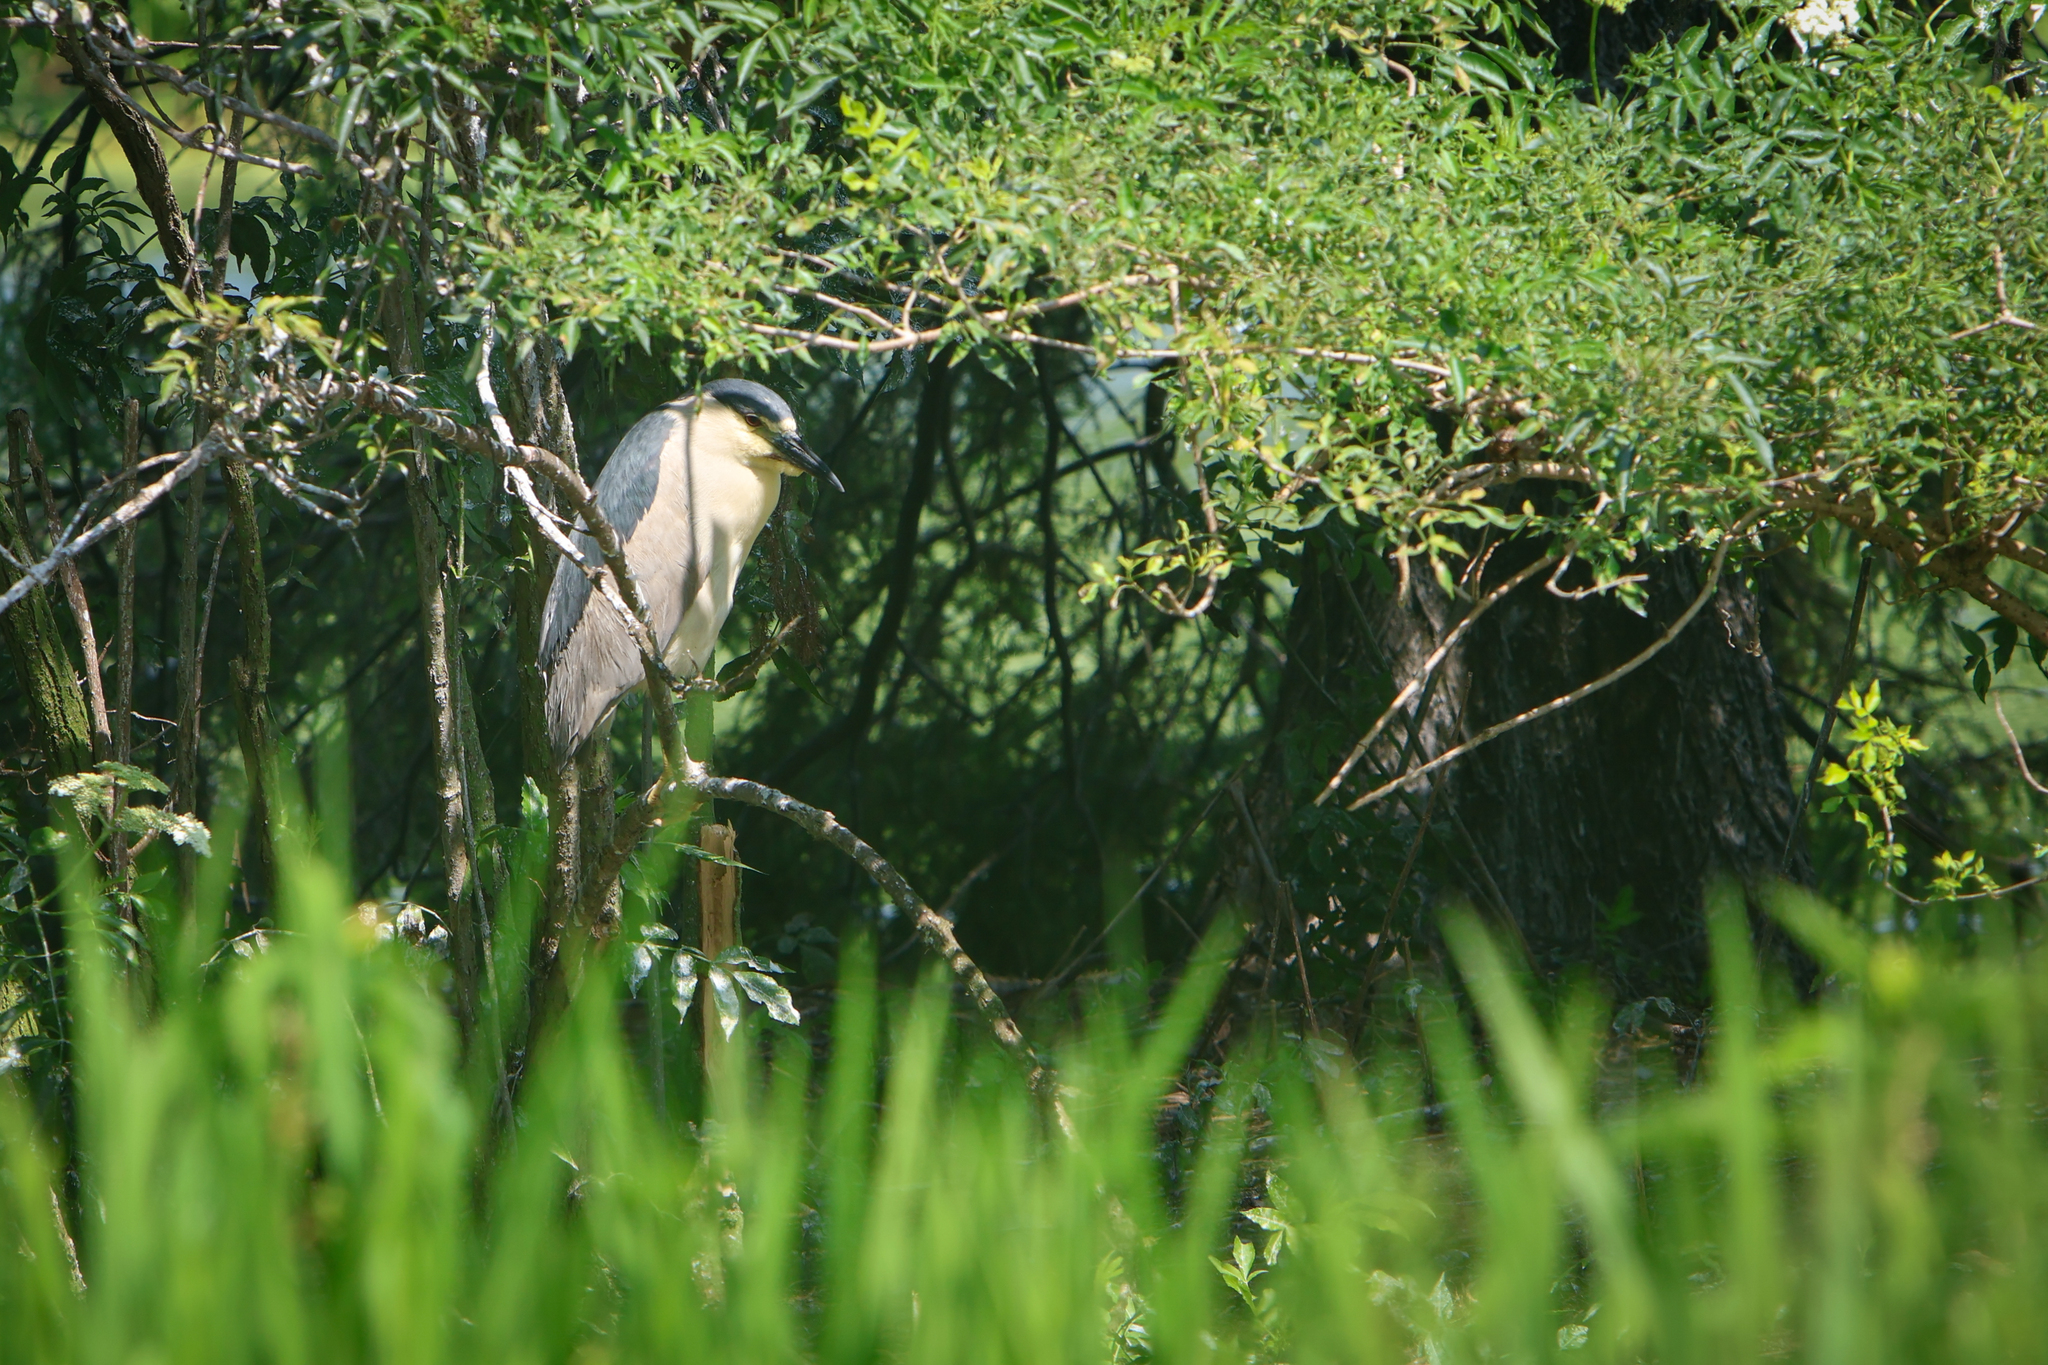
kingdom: Animalia
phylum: Chordata
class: Aves
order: Pelecaniformes
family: Ardeidae
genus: Nycticorax
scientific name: Nycticorax nycticorax
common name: Black-crowned night heron
